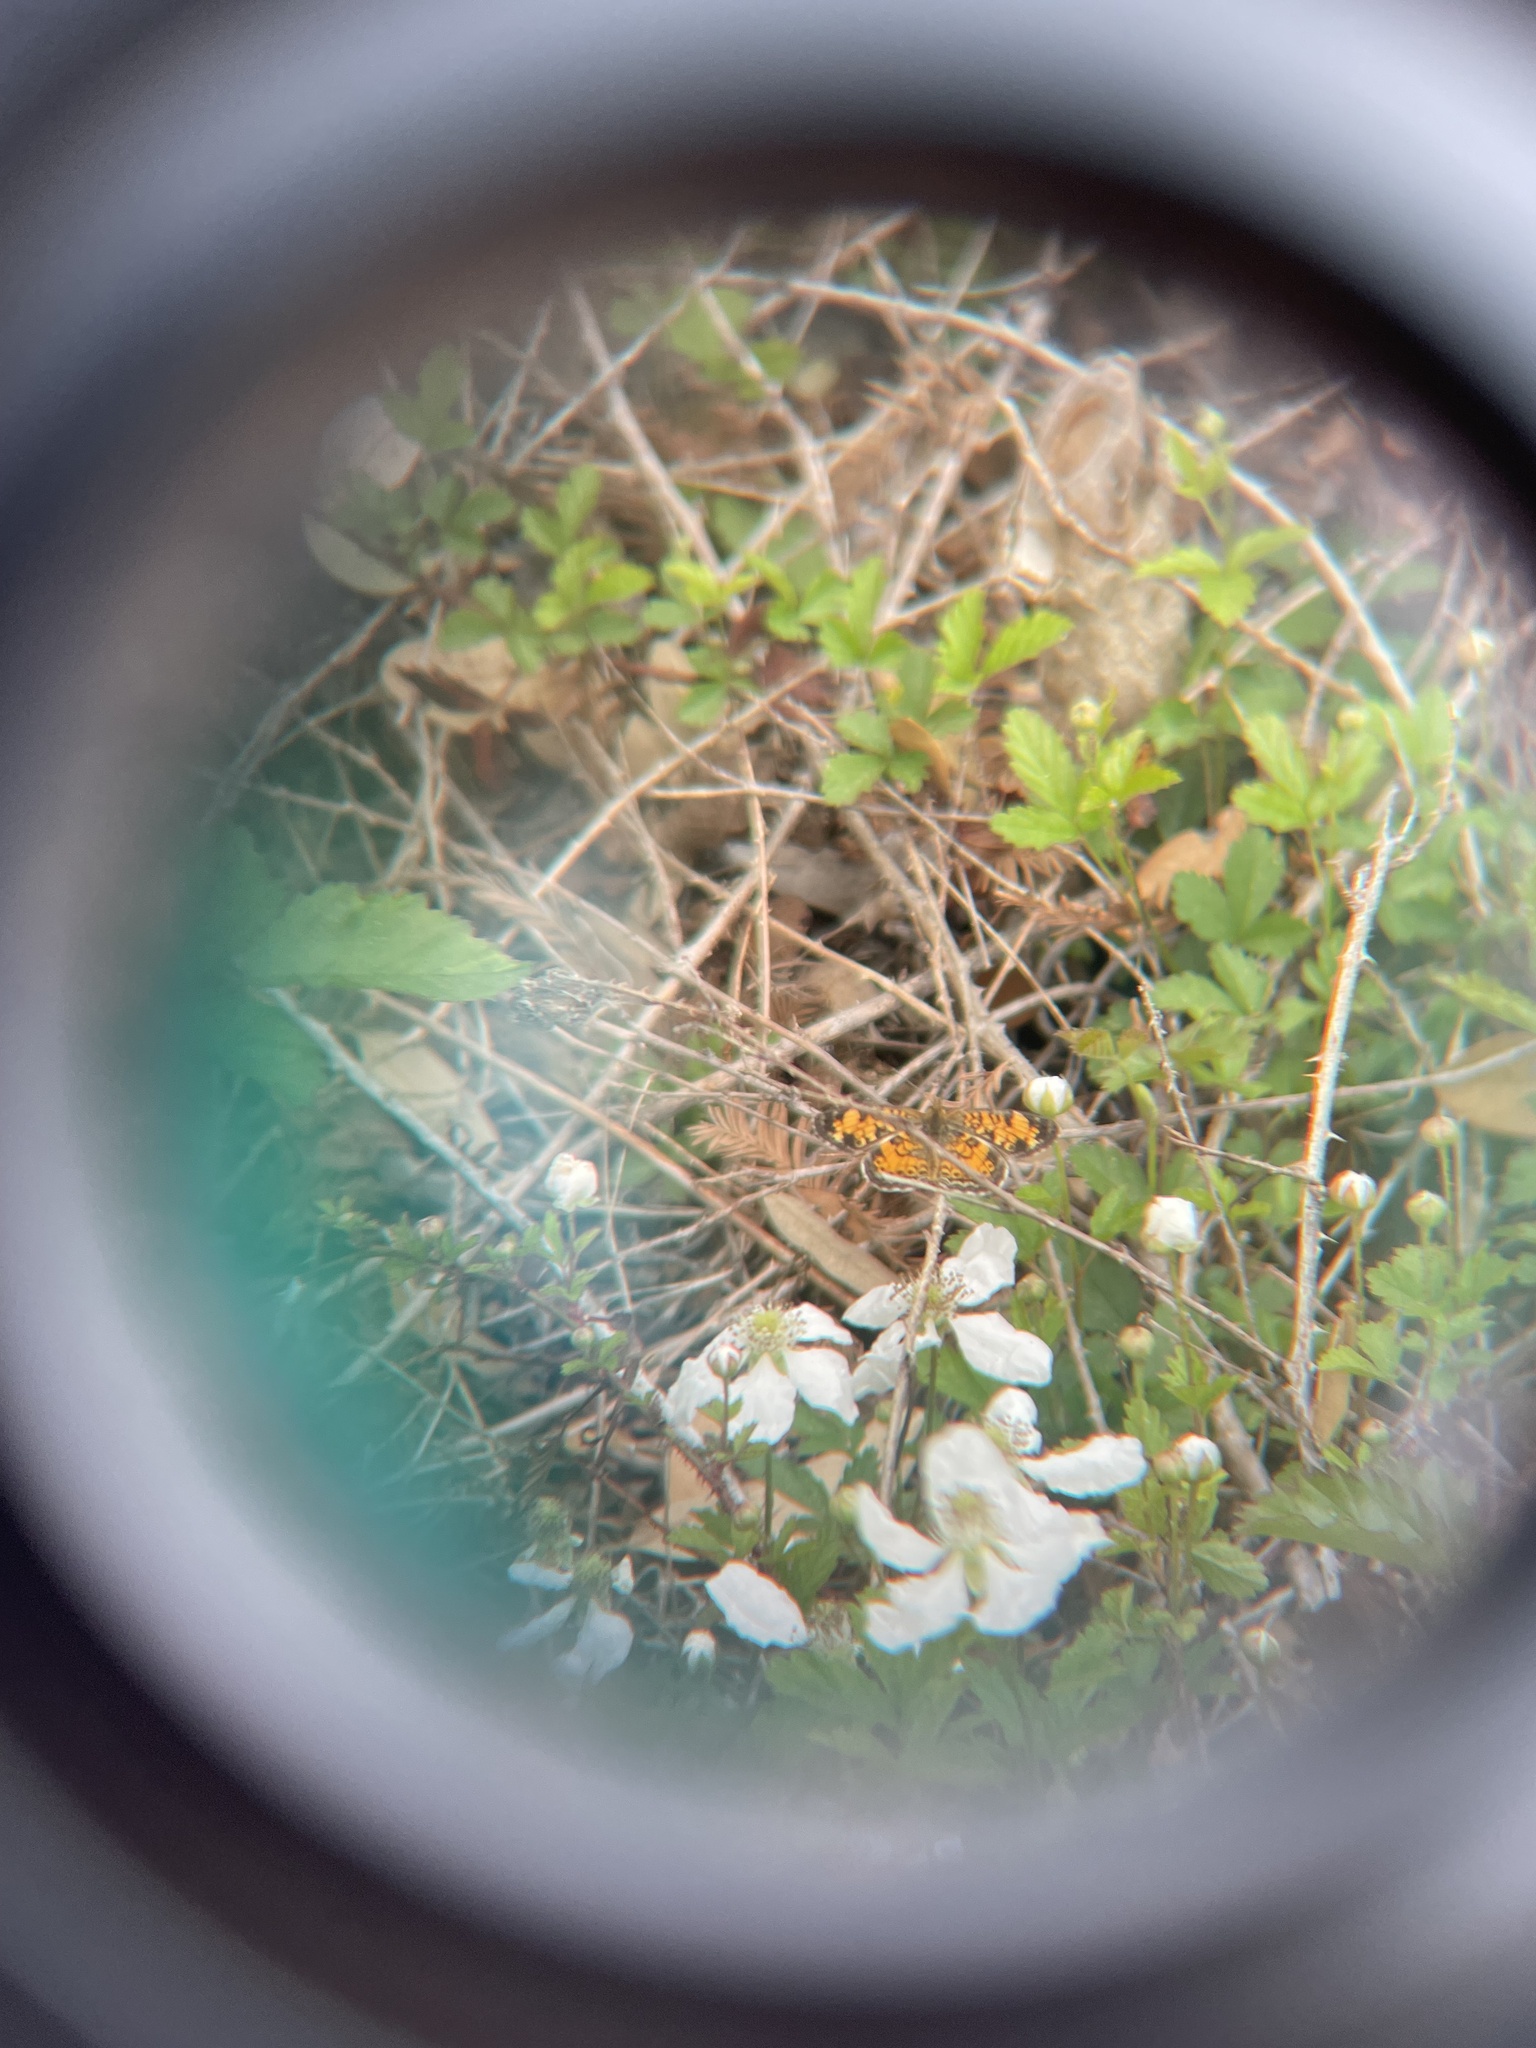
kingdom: Animalia
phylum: Arthropoda
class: Insecta
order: Lepidoptera
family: Nymphalidae
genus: Phyciodes
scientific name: Phyciodes tharos
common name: Pearl crescent
